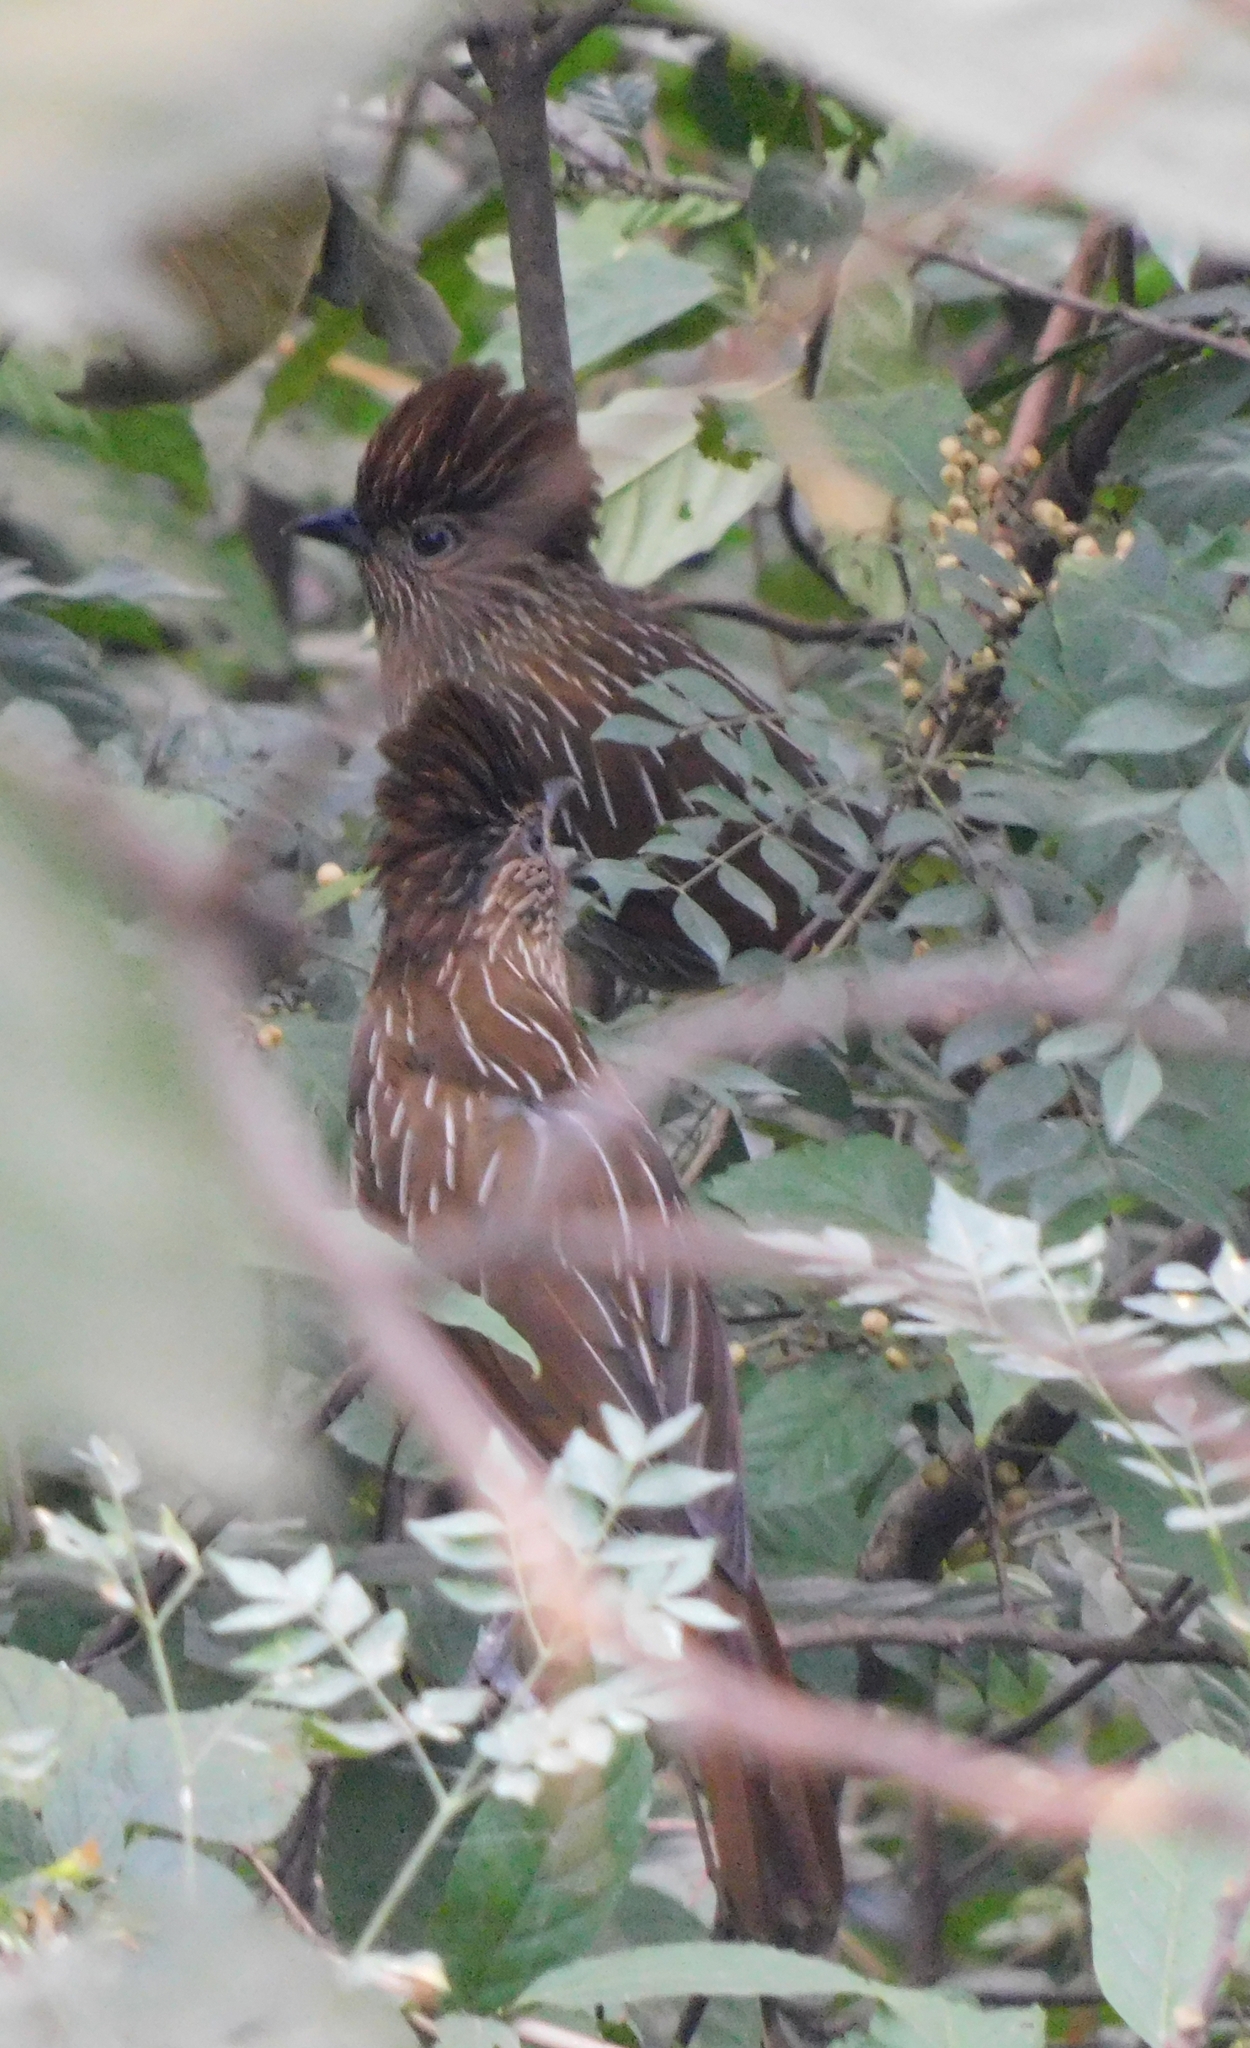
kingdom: Animalia
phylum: Chordata
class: Aves
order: Passeriformes
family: Leiothrichidae
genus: Garrulax
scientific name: Garrulax striatus
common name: Striated laughingthrush
